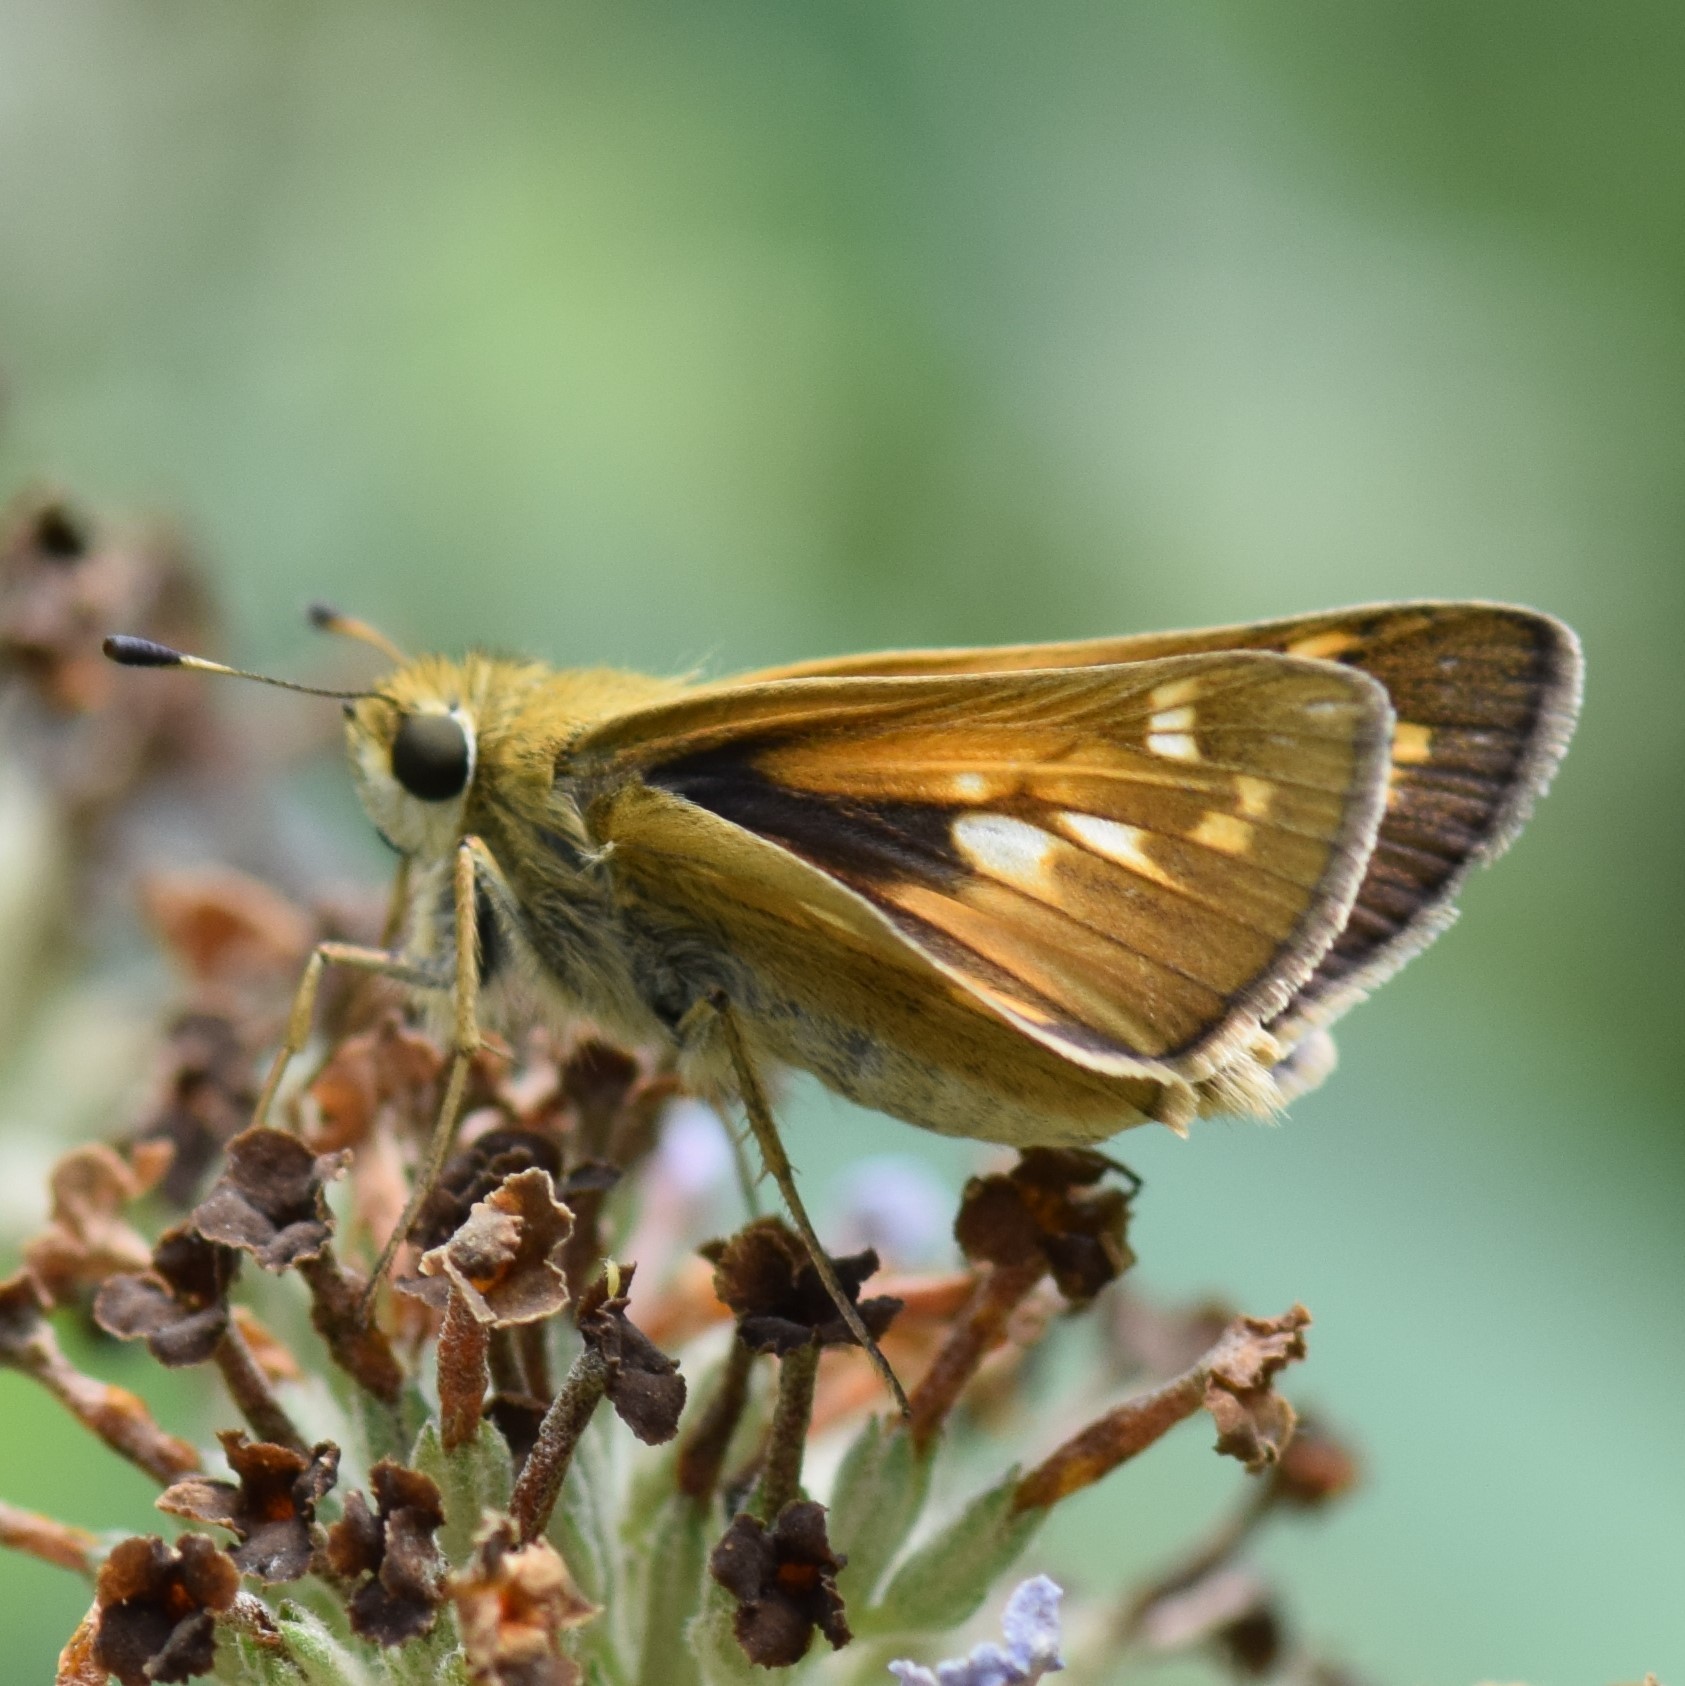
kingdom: Animalia
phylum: Arthropoda
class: Insecta
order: Lepidoptera
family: Hesperiidae
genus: Atalopedes
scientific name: Atalopedes
